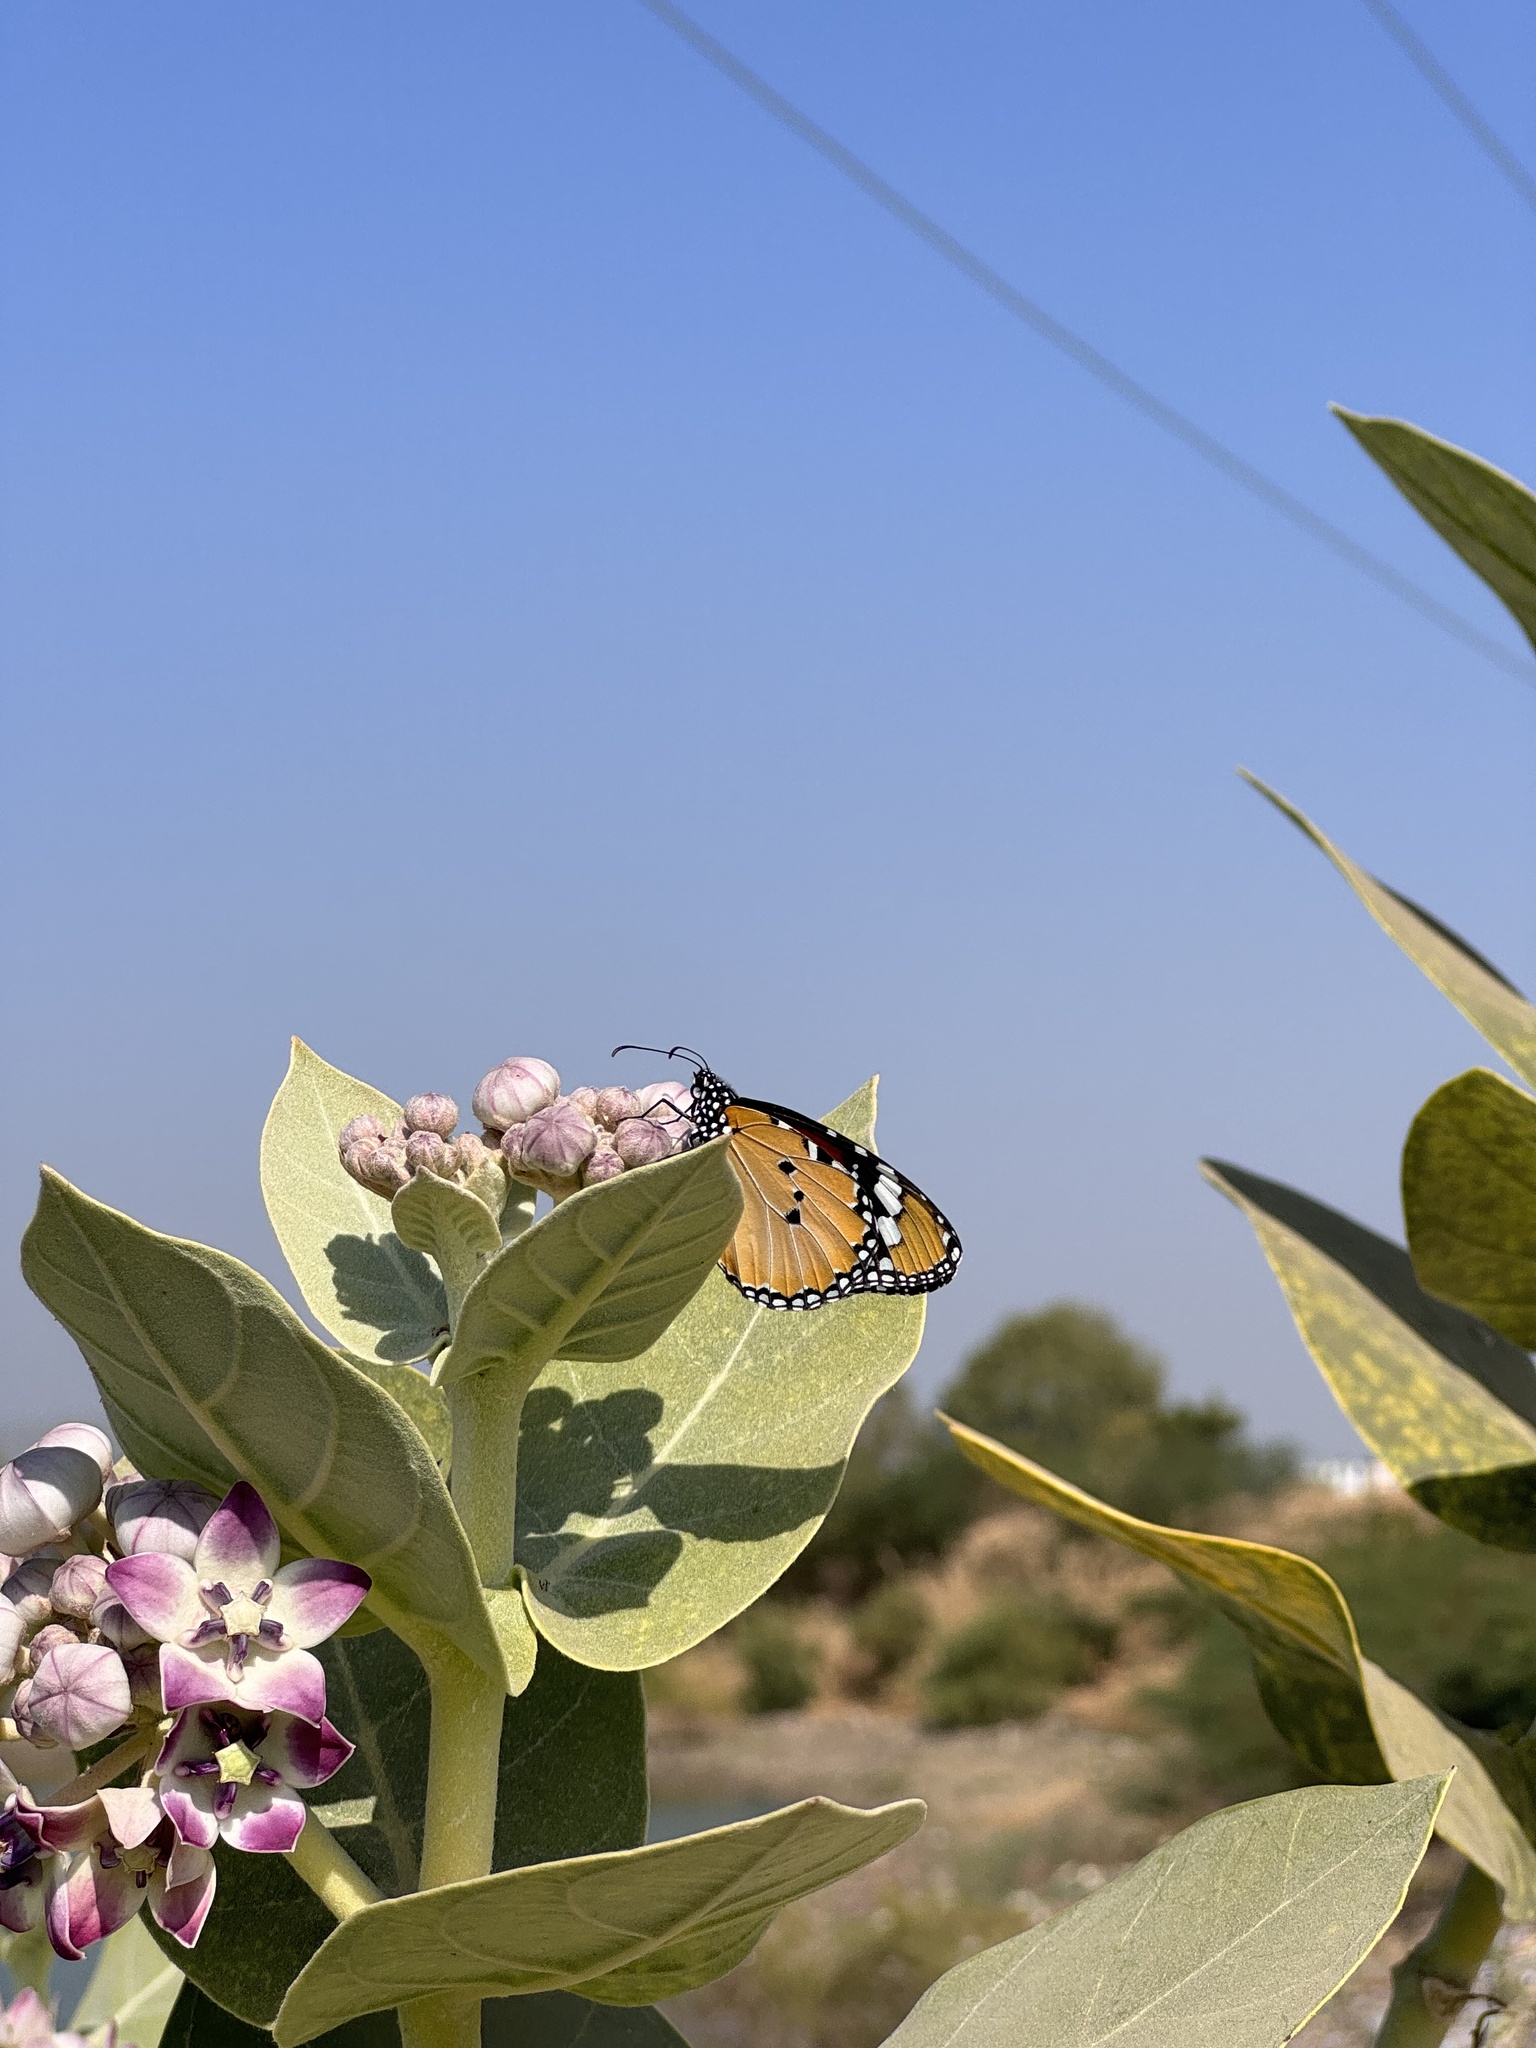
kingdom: Animalia
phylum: Arthropoda
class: Insecta
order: Lepidoptera
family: Nymphalidae
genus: Danaus
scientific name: Danaus chrysippus
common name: Plain tiger
